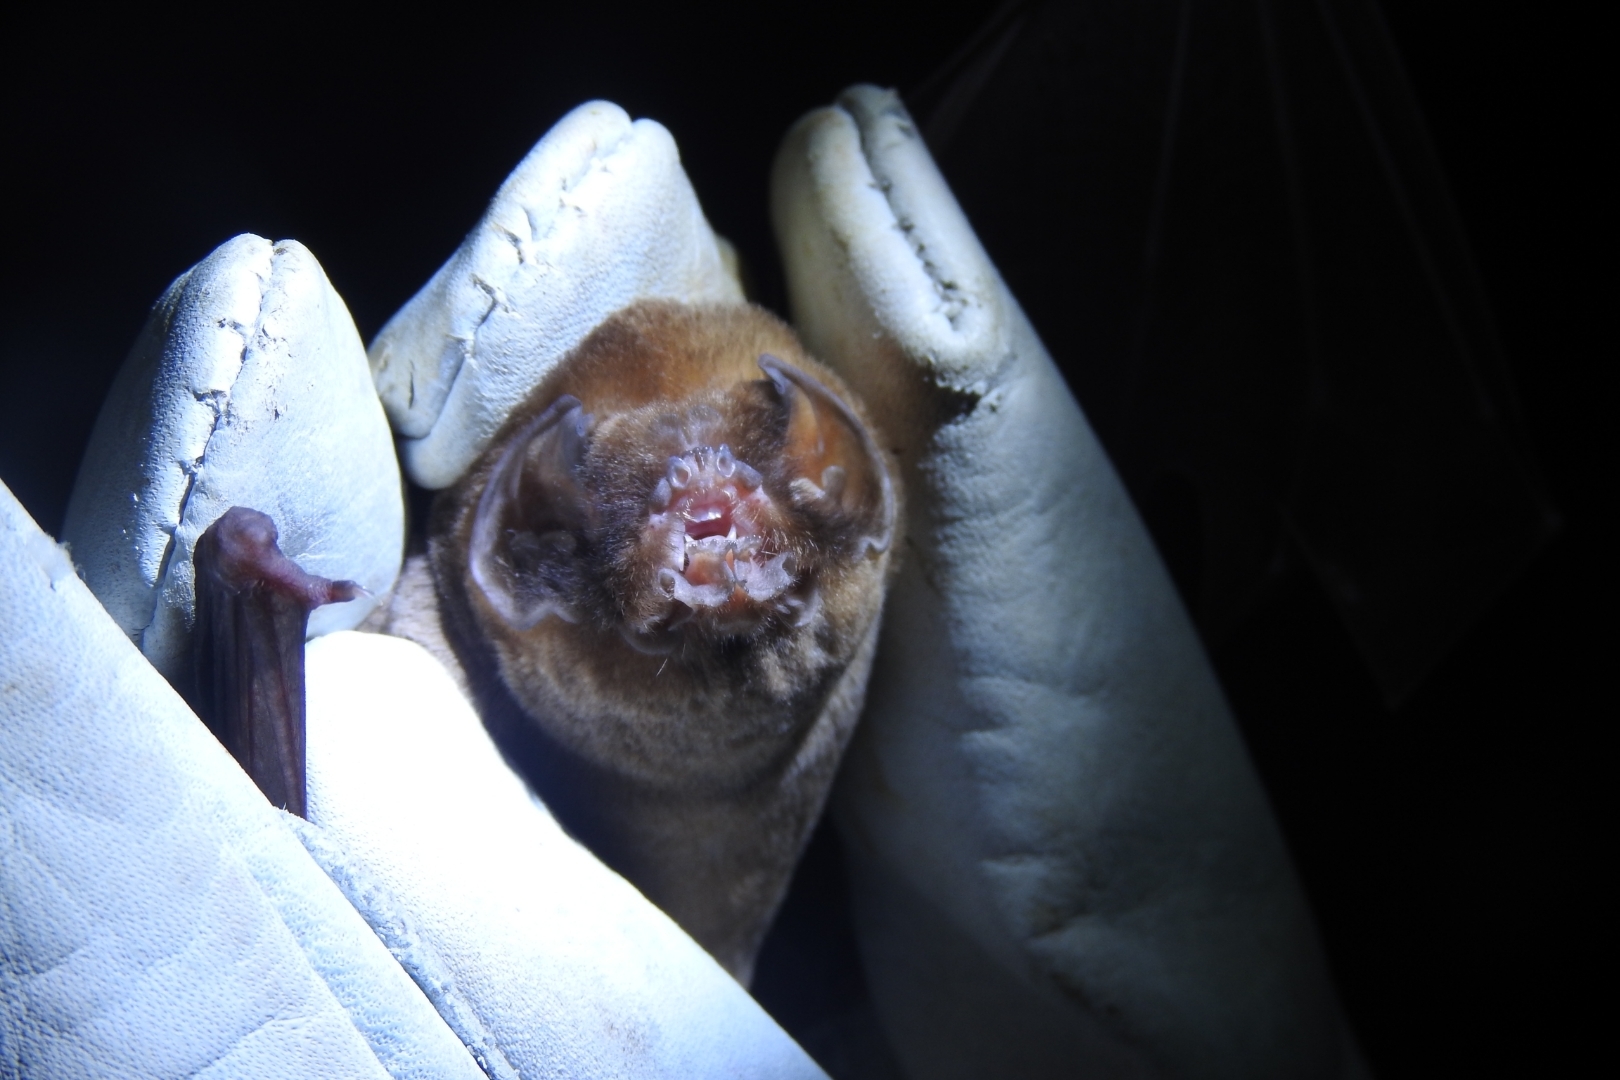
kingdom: Animalia
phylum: Chordata
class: Mammalia
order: Chiroptera
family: Mormoopidae
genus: Mormoops
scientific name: Mormoops megalophylla
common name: Peters's ghost-faced bat
